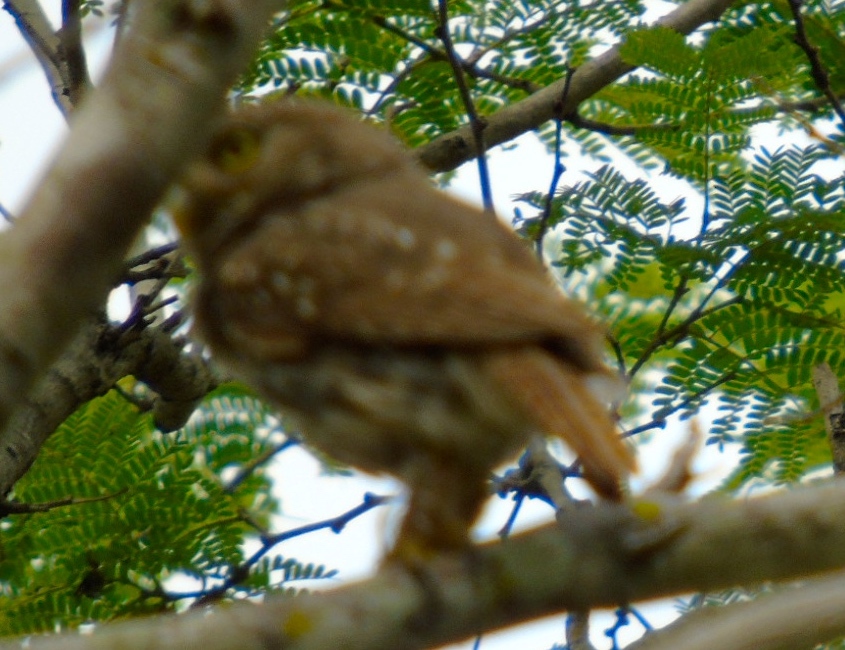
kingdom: Animalia
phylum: Chordata
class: Aves
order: Strigiformes
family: Strigidae
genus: Glaucidium
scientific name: Glaucidium brasilianum
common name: Ferruginous pygmy-owl
